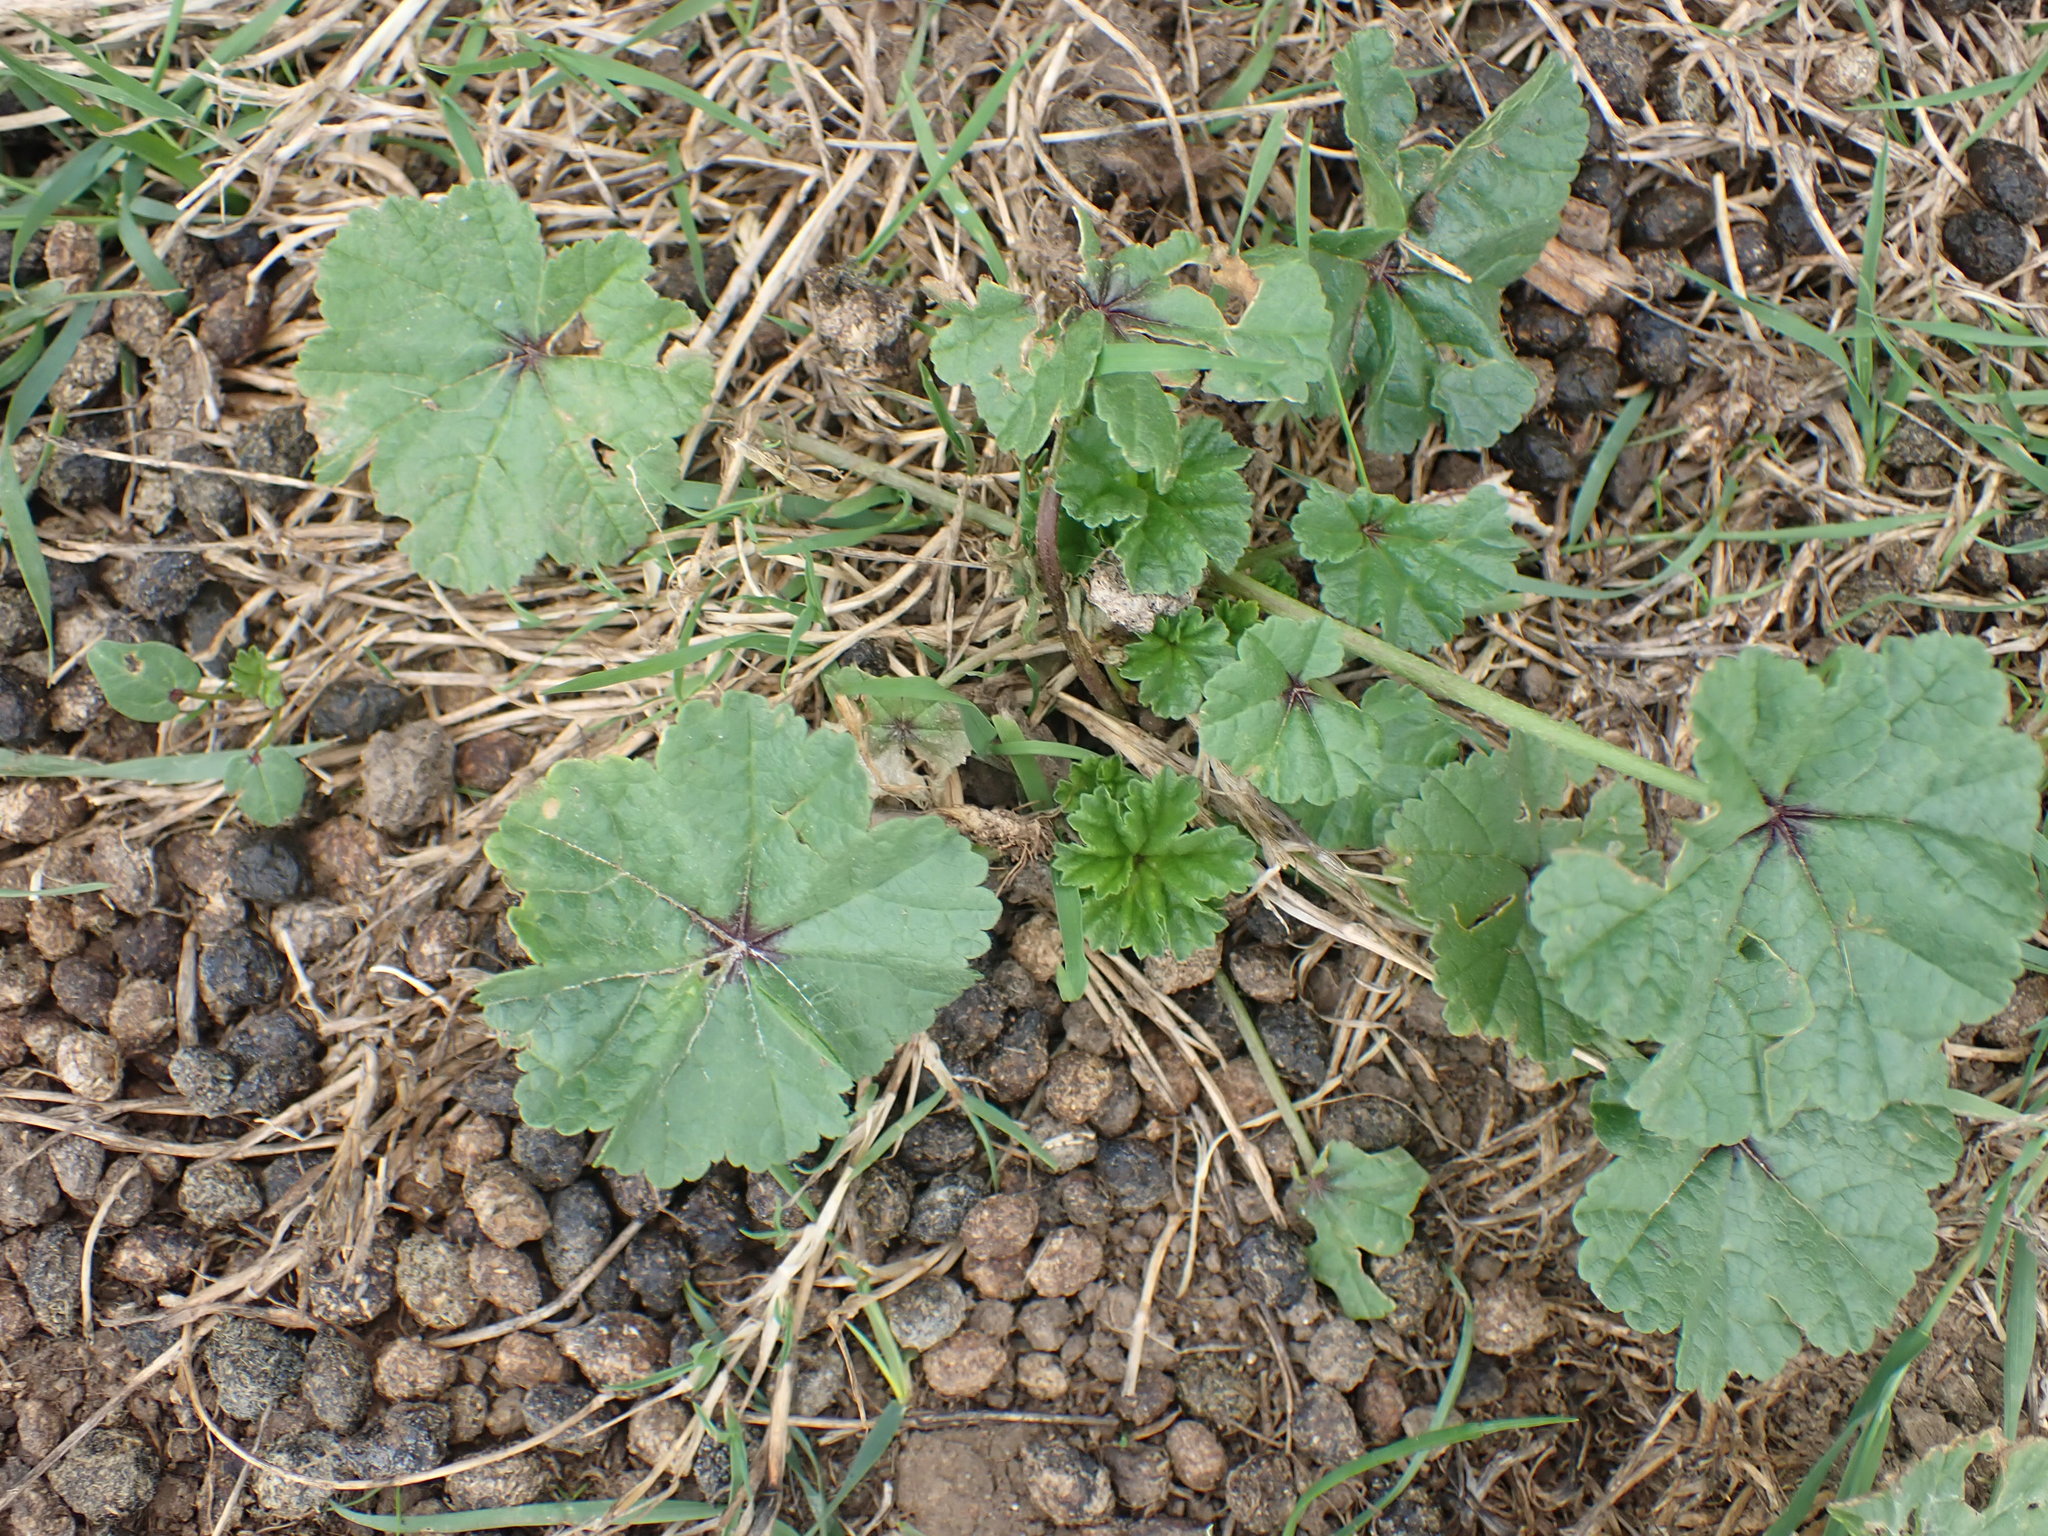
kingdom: Plantae
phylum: Tracheophyta
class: Magnoliopsida
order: Malvales
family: Malvaceae
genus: Malva
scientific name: Malva sylvestris
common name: Common mallow
